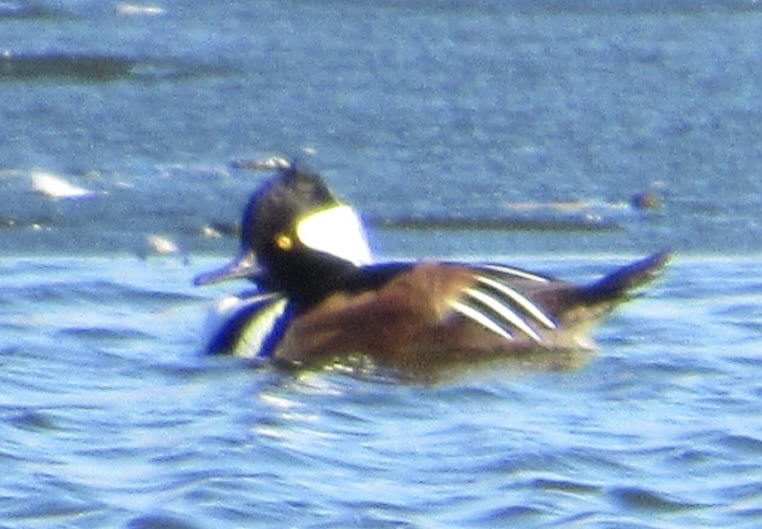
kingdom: Animalia
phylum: Chordata
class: Aves
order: Anseriformes
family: Anatidae
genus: Lophodytes
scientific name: Lophodytes cucullatus
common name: Hooded merganser
